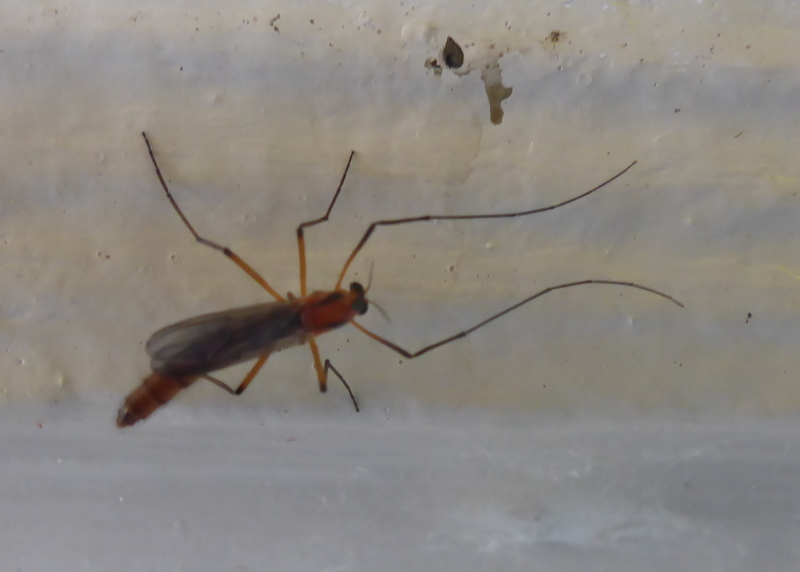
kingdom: Animalia
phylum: Arthropoda
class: Insecta
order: Diptera
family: Chironomidae
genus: Axarus
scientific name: Axarus
